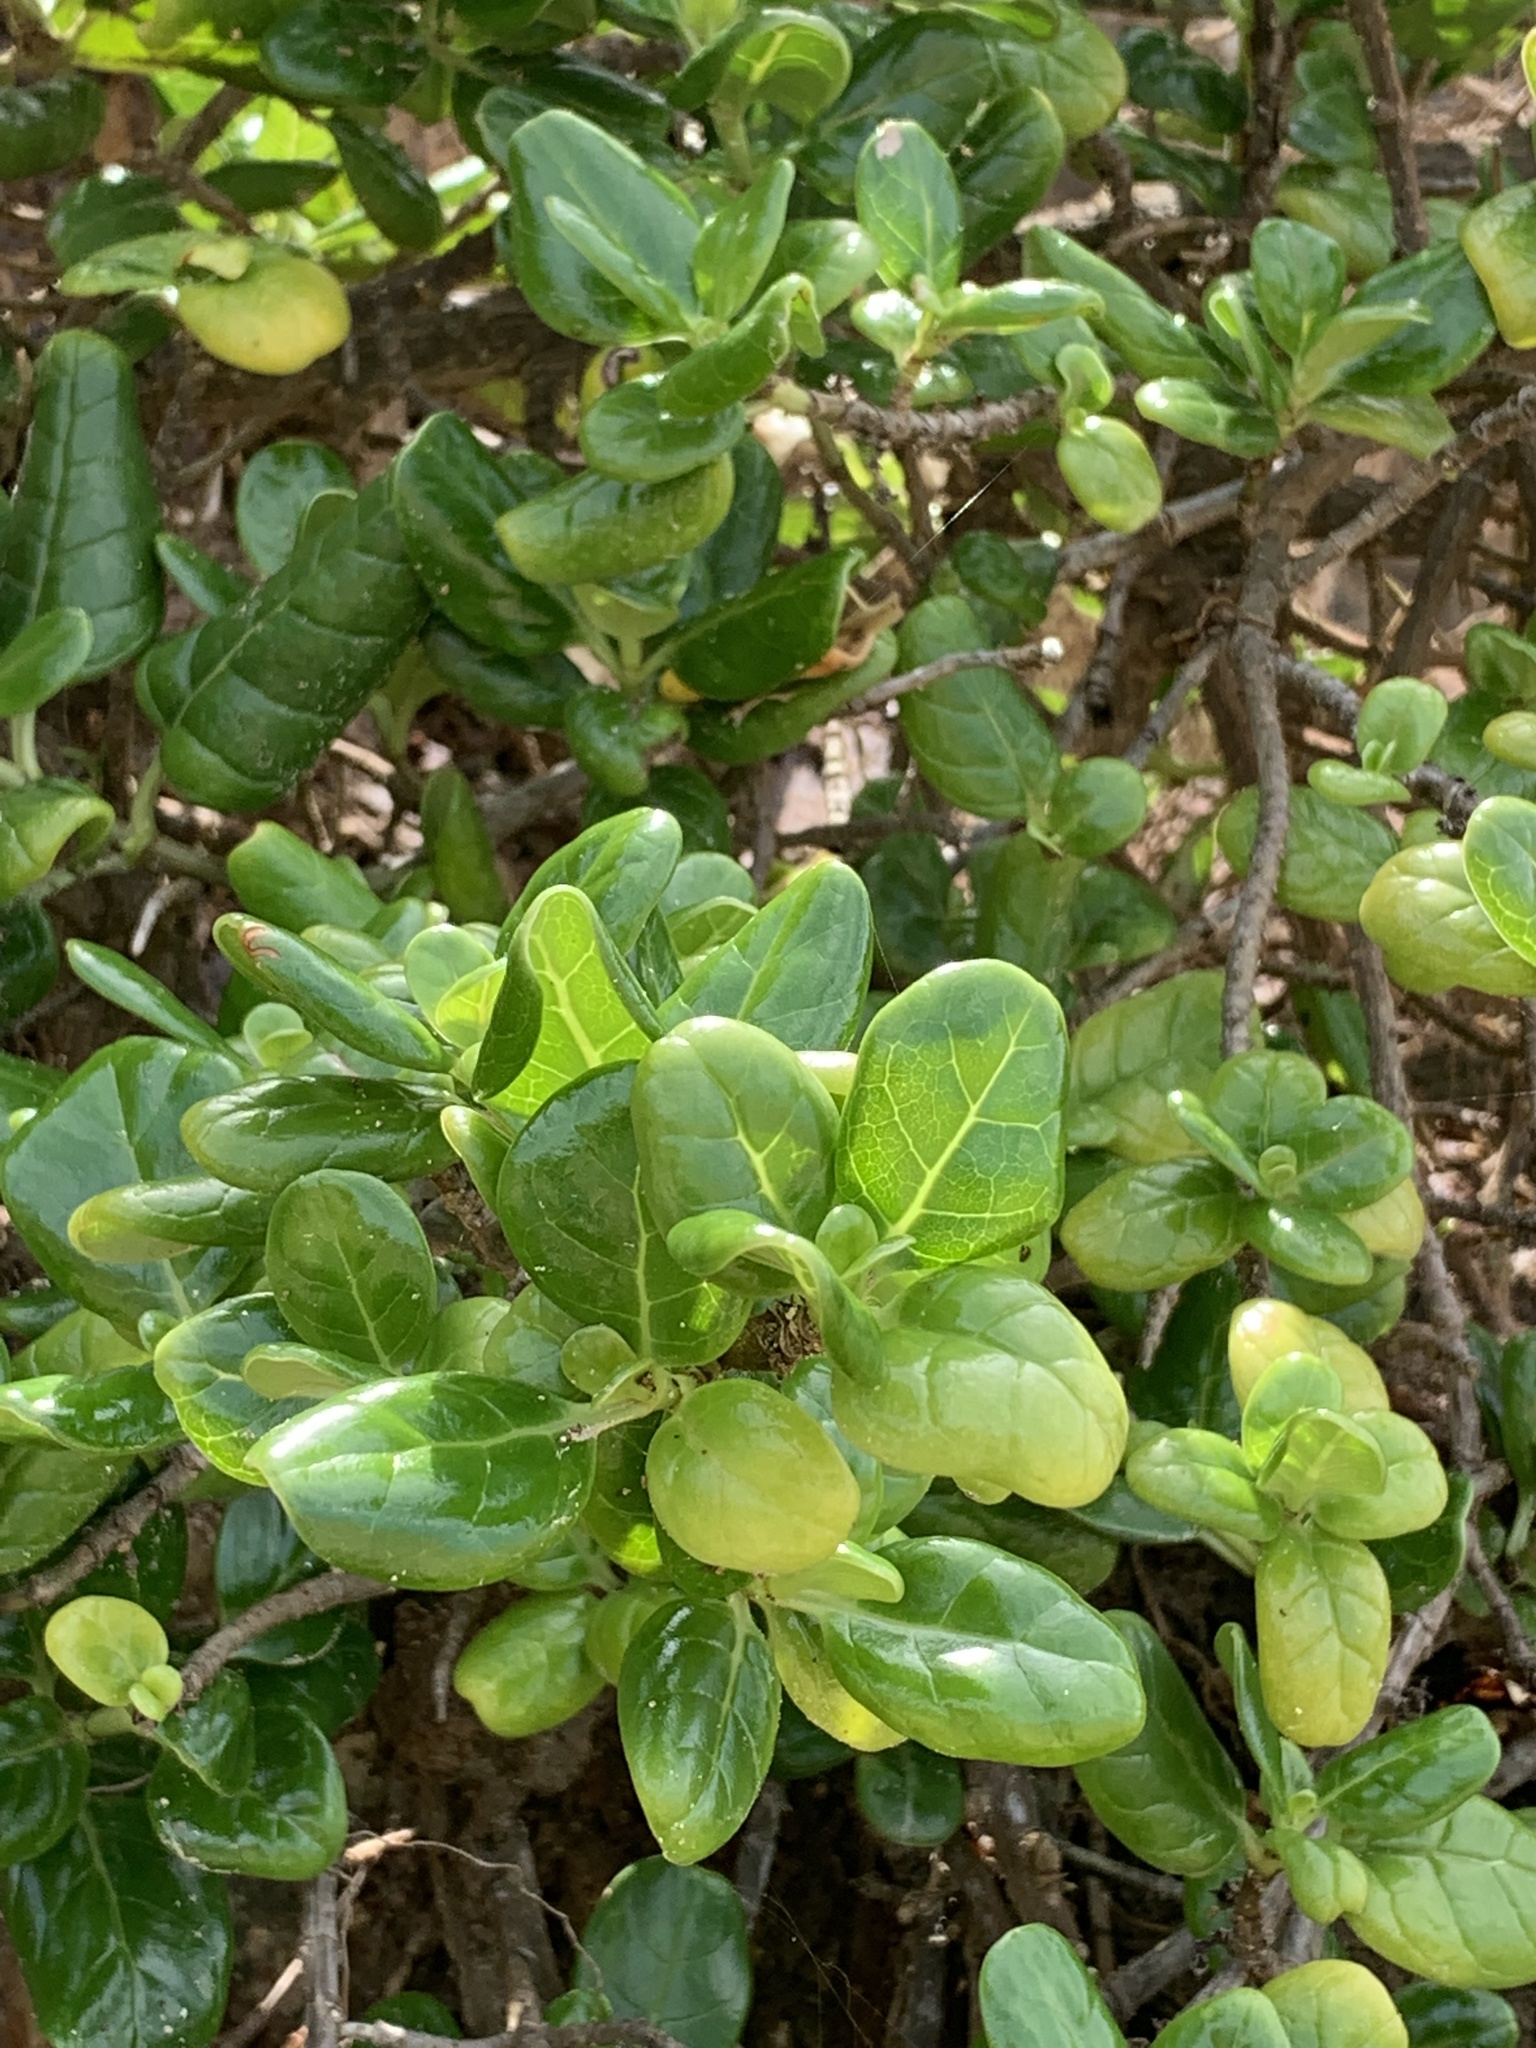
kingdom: Plantae
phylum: Tracheophyta
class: Magnoliopsida
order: Gentianales
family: Rubiaceae
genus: Coprosma
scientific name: Coprosma repens
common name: Tree bedstraw
